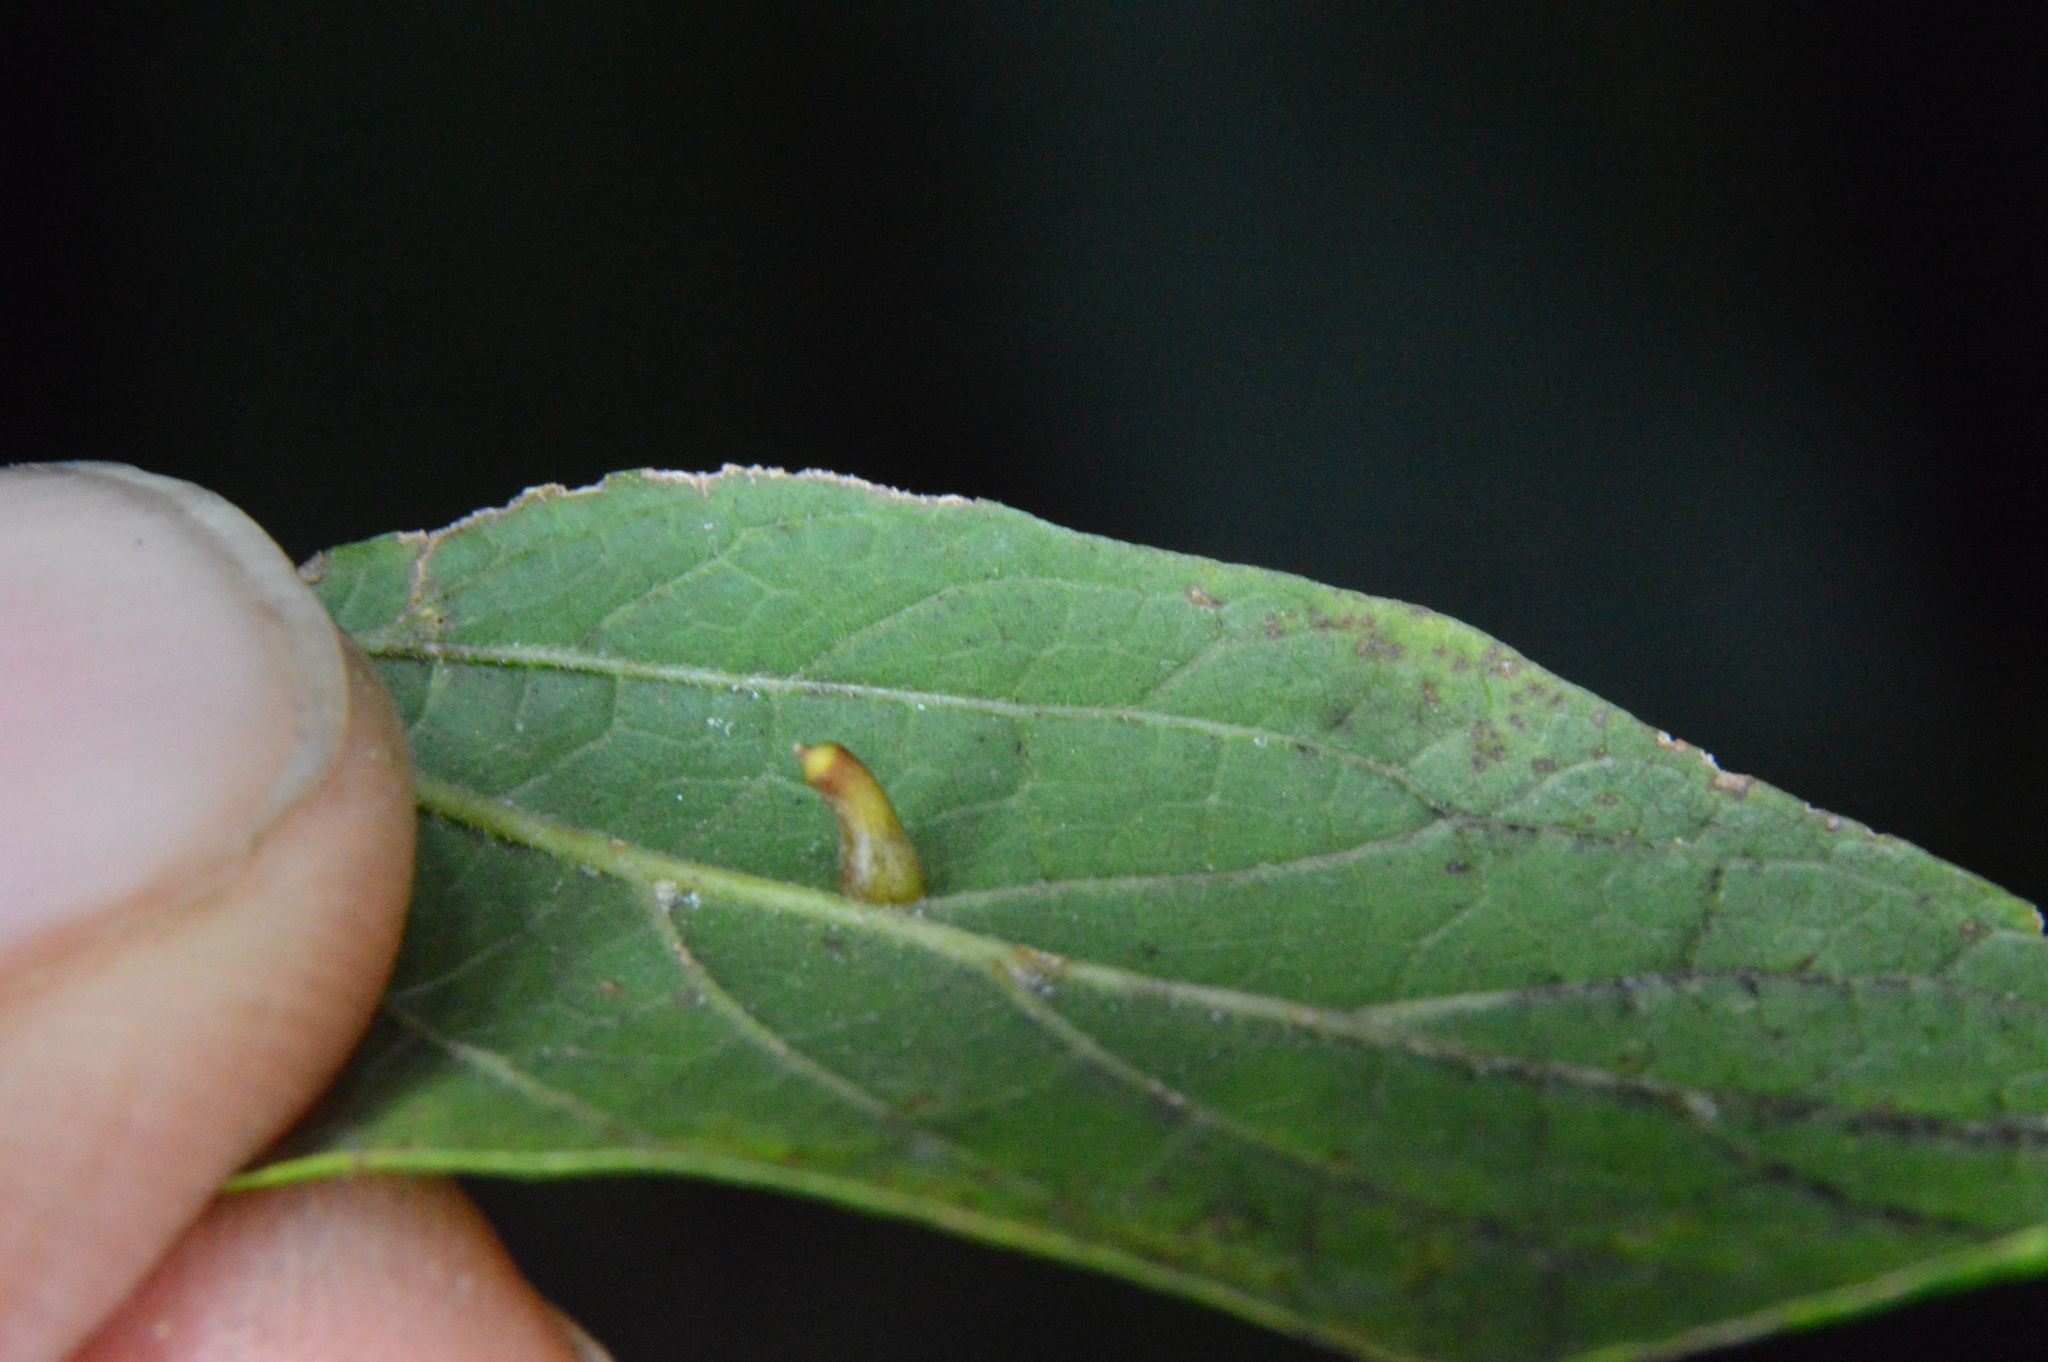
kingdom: Animalia
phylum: Arthropoda
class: Insecta
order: Diptera
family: Cecidomyiidae
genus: Celticecis
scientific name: Celticecis aciculata
